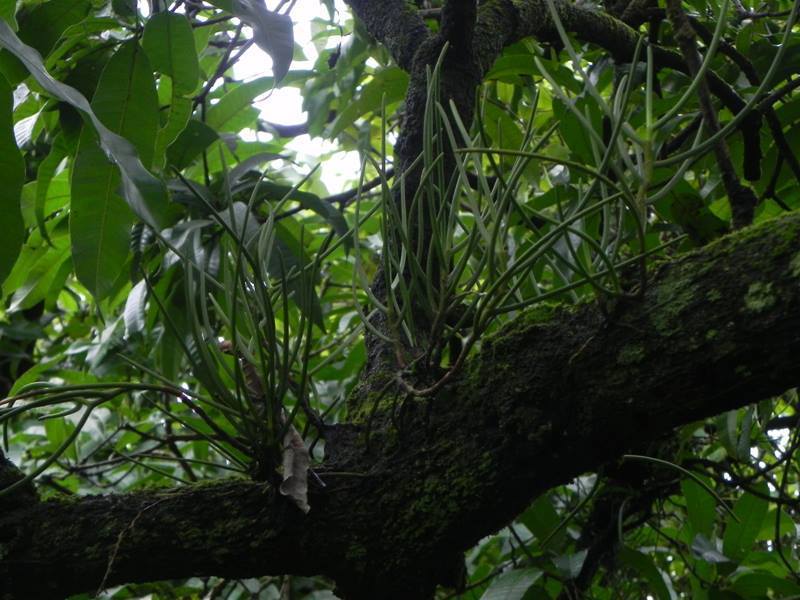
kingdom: Plantae
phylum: Tracheophyta
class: Liliopsida
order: Asparagales
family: Orchidaceae
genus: Luisia
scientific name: Luisia tristis
